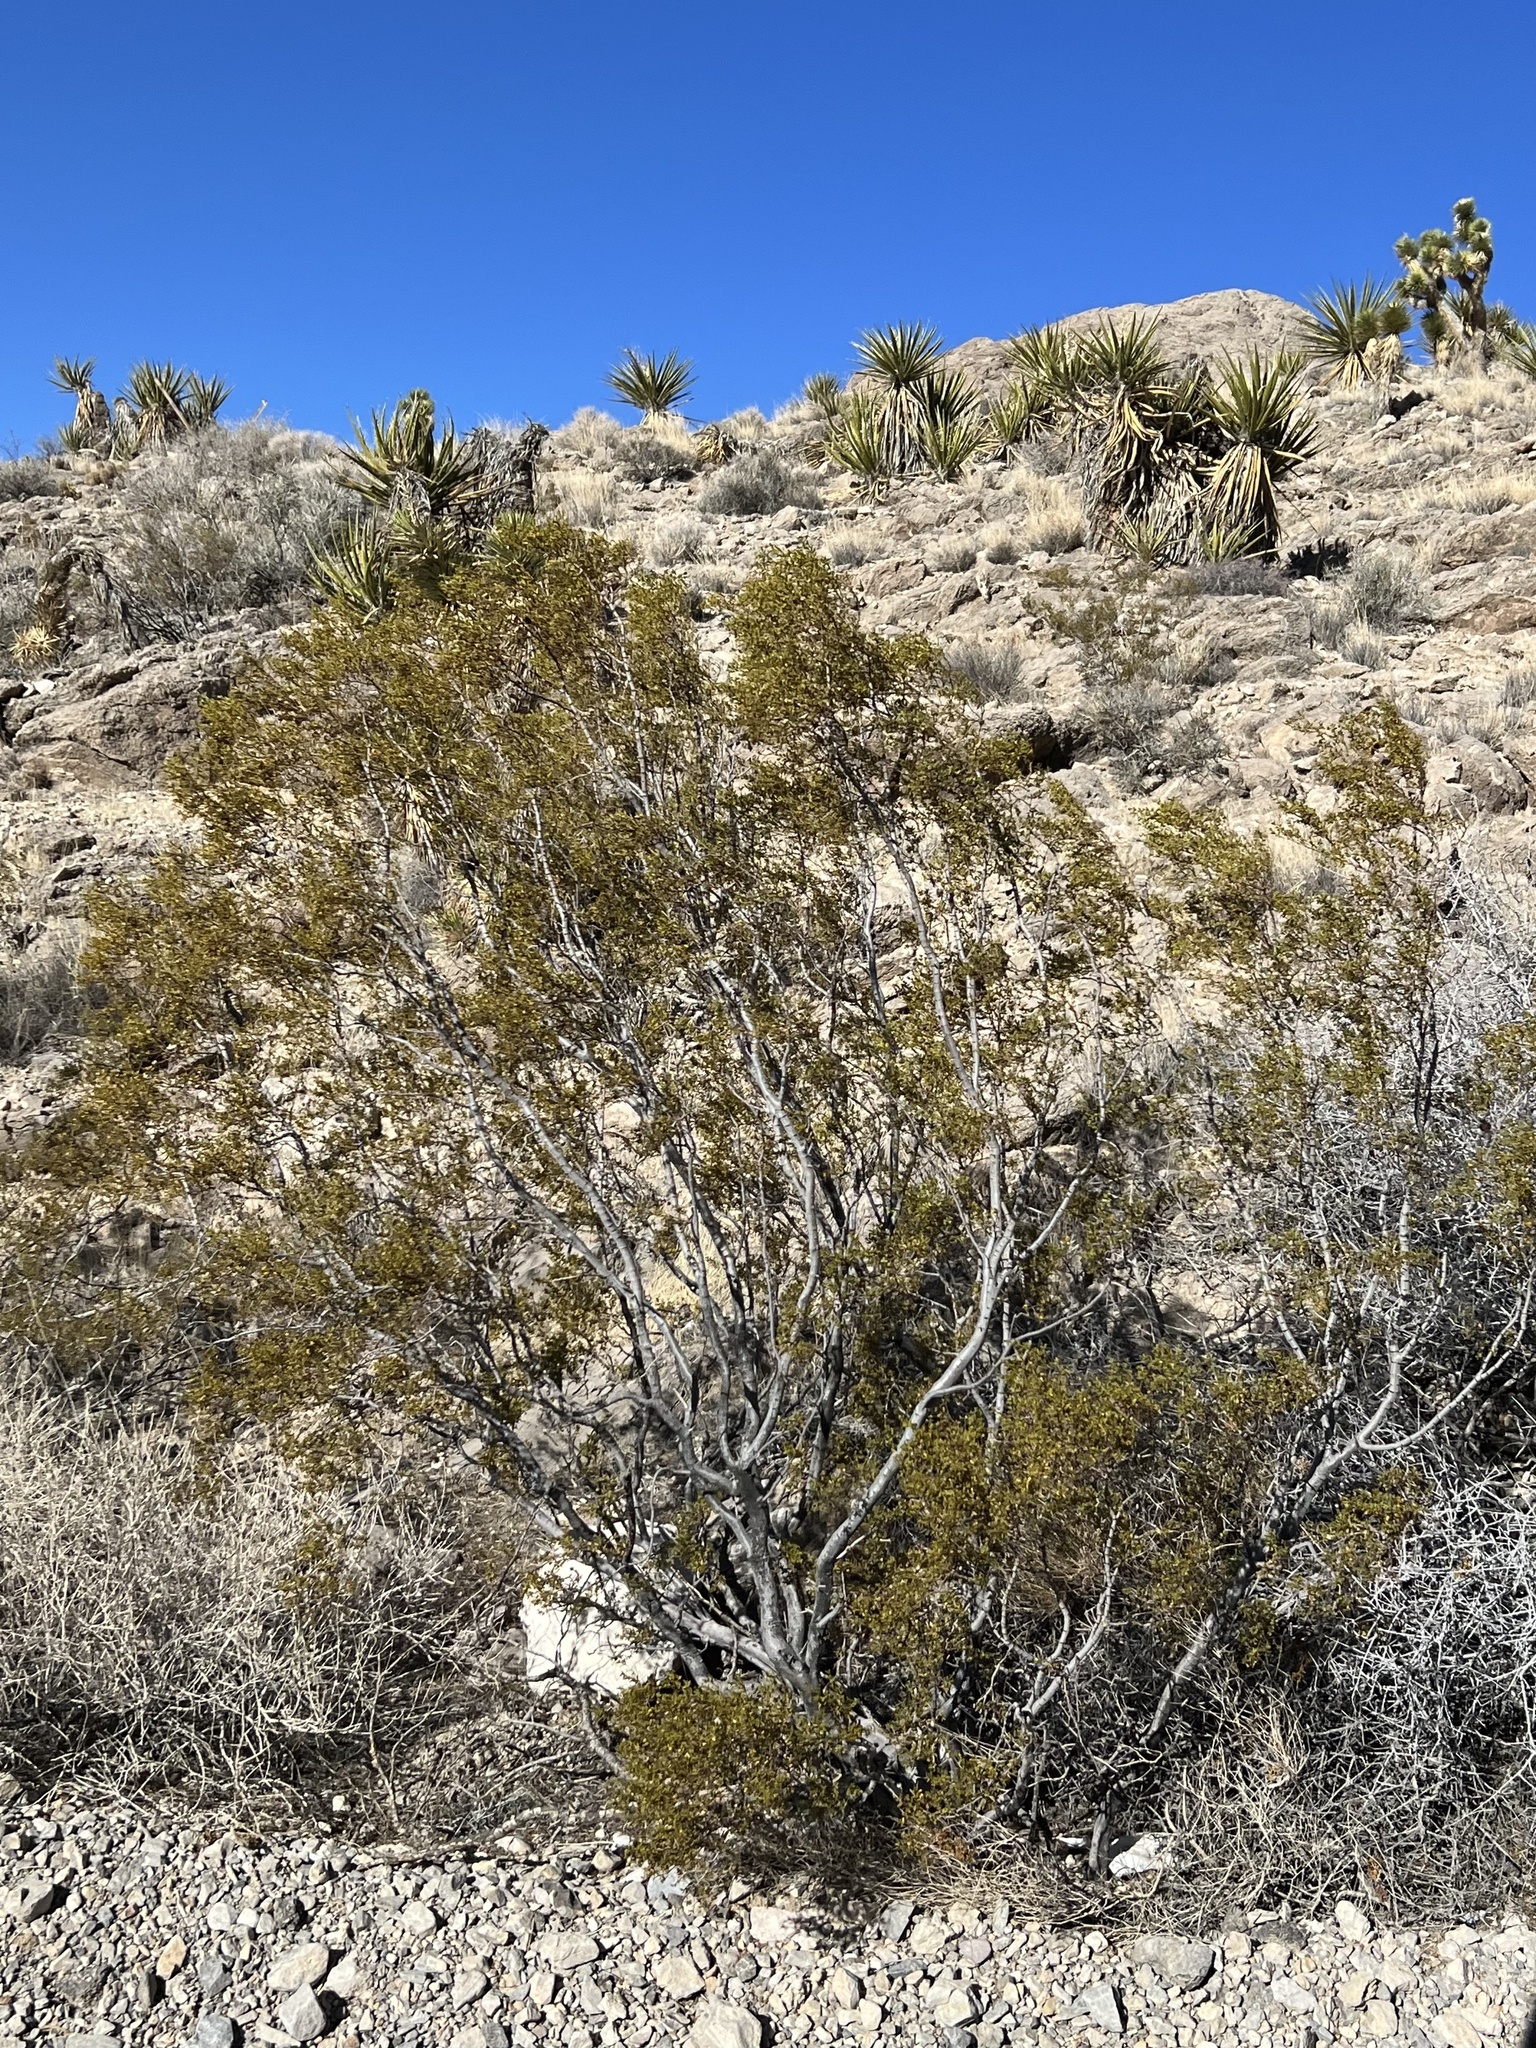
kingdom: Plantae
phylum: Tracheophyta
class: Magnoliopsida
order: Zygophyllales
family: Zygophyllaceae
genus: Larrea
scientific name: Larrea tridentata
